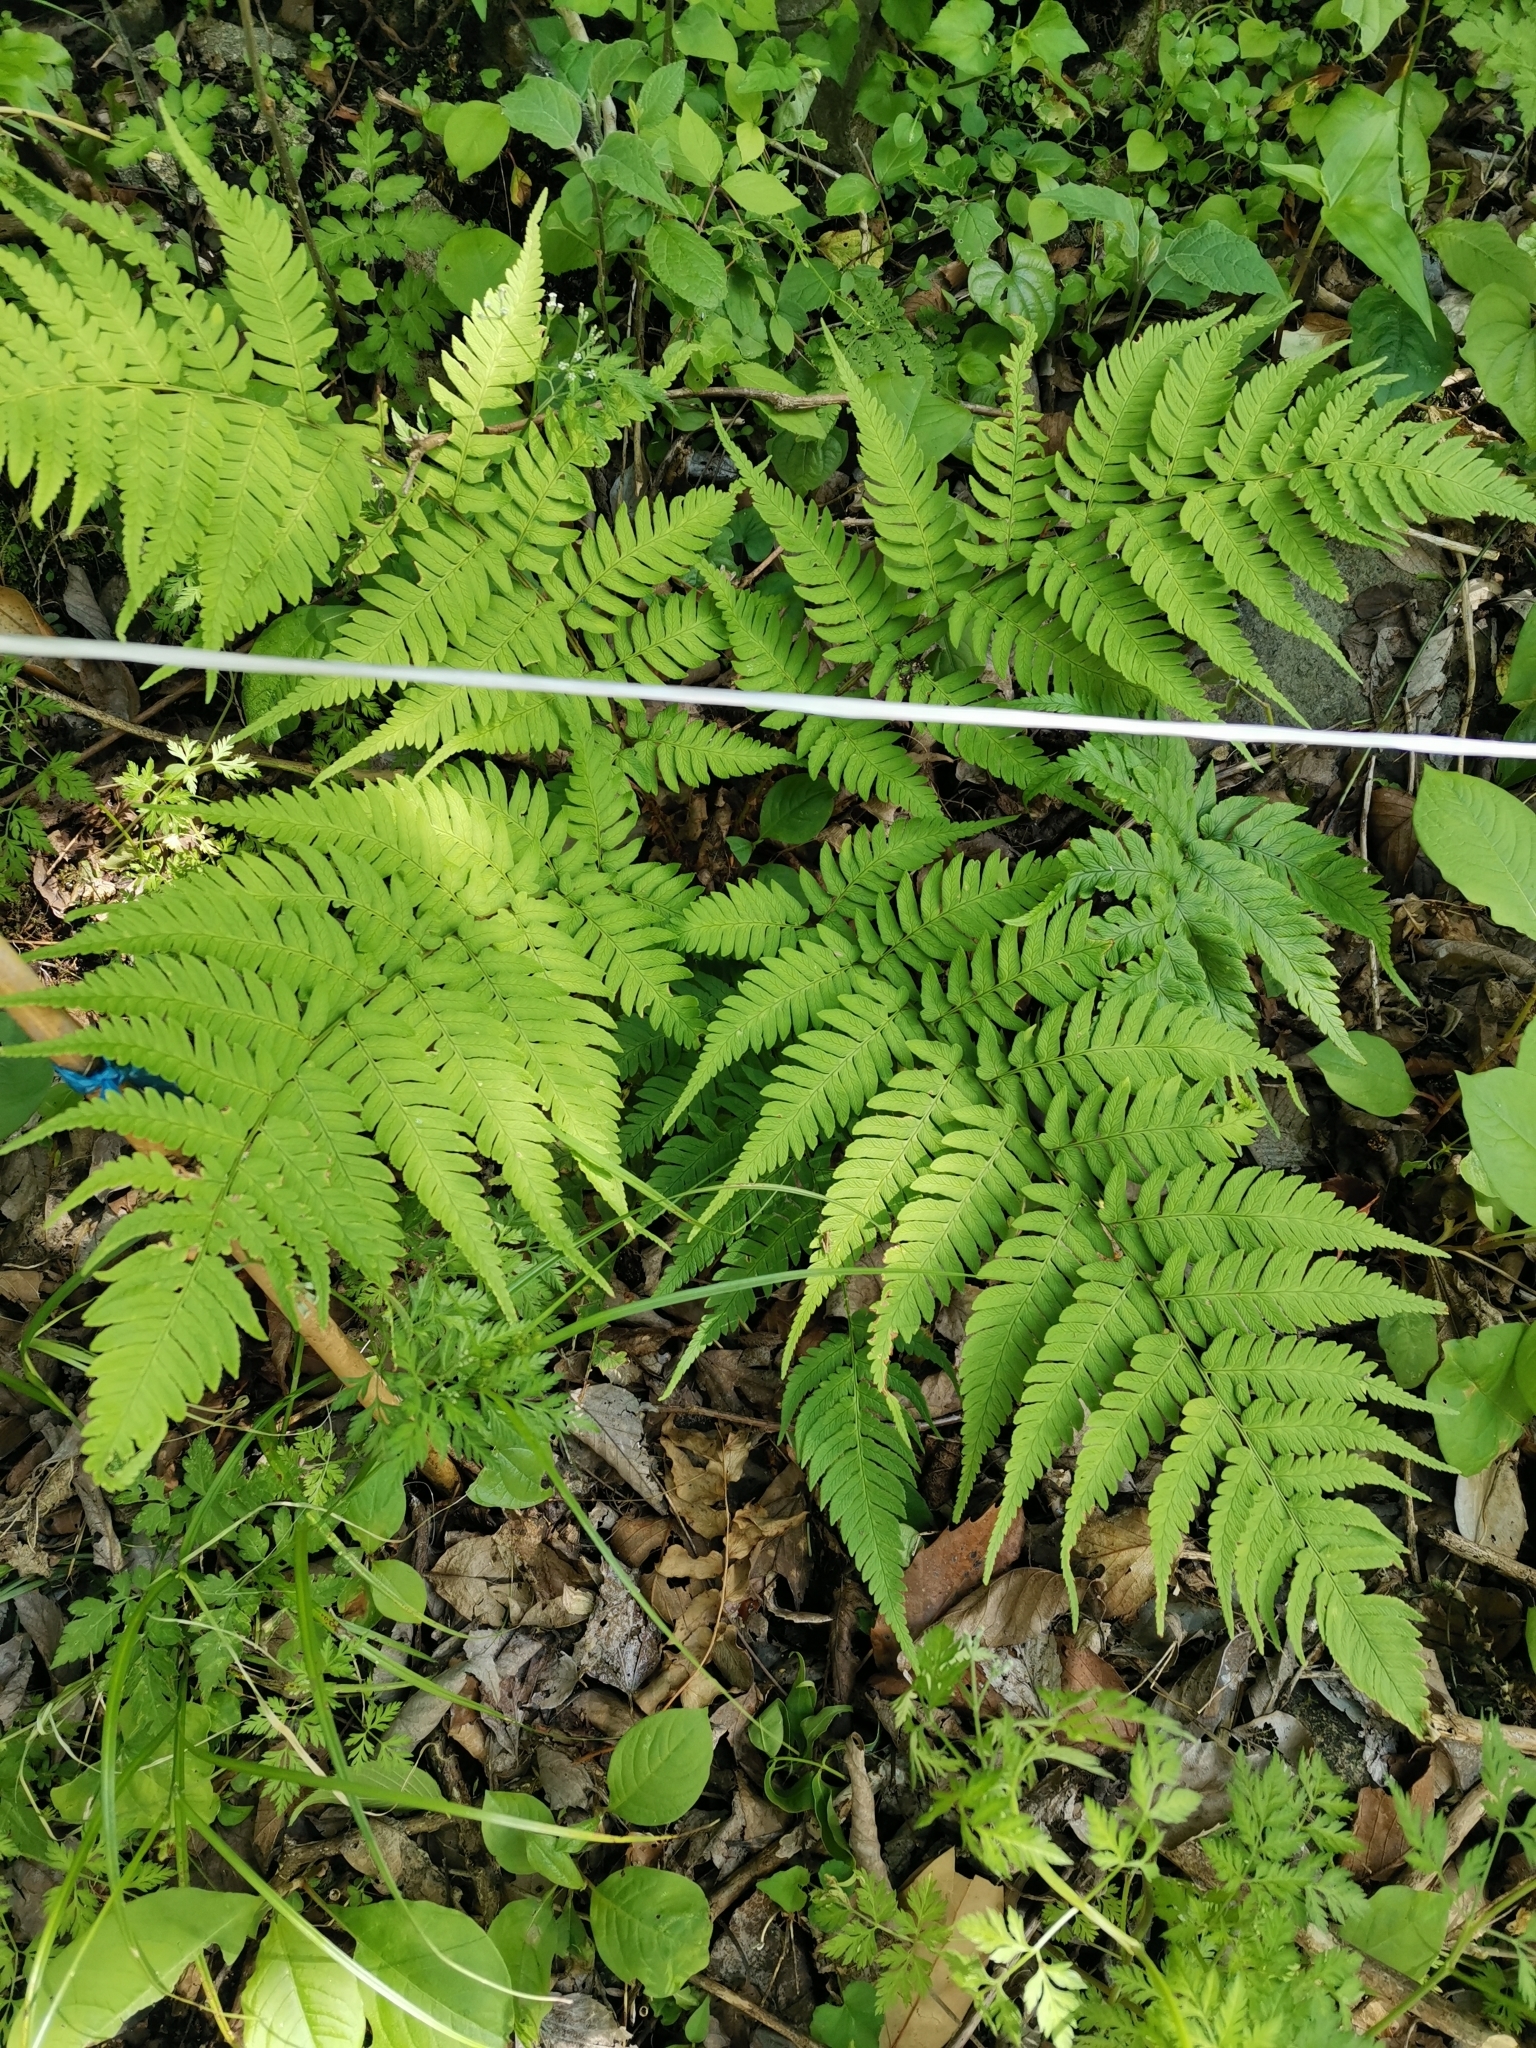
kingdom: Plantae
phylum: Tracheophyta
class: Polypodiopsida
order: Polypodiales
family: Dryopteridaceae
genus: Dryopteris
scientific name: Dryopteris lacera
